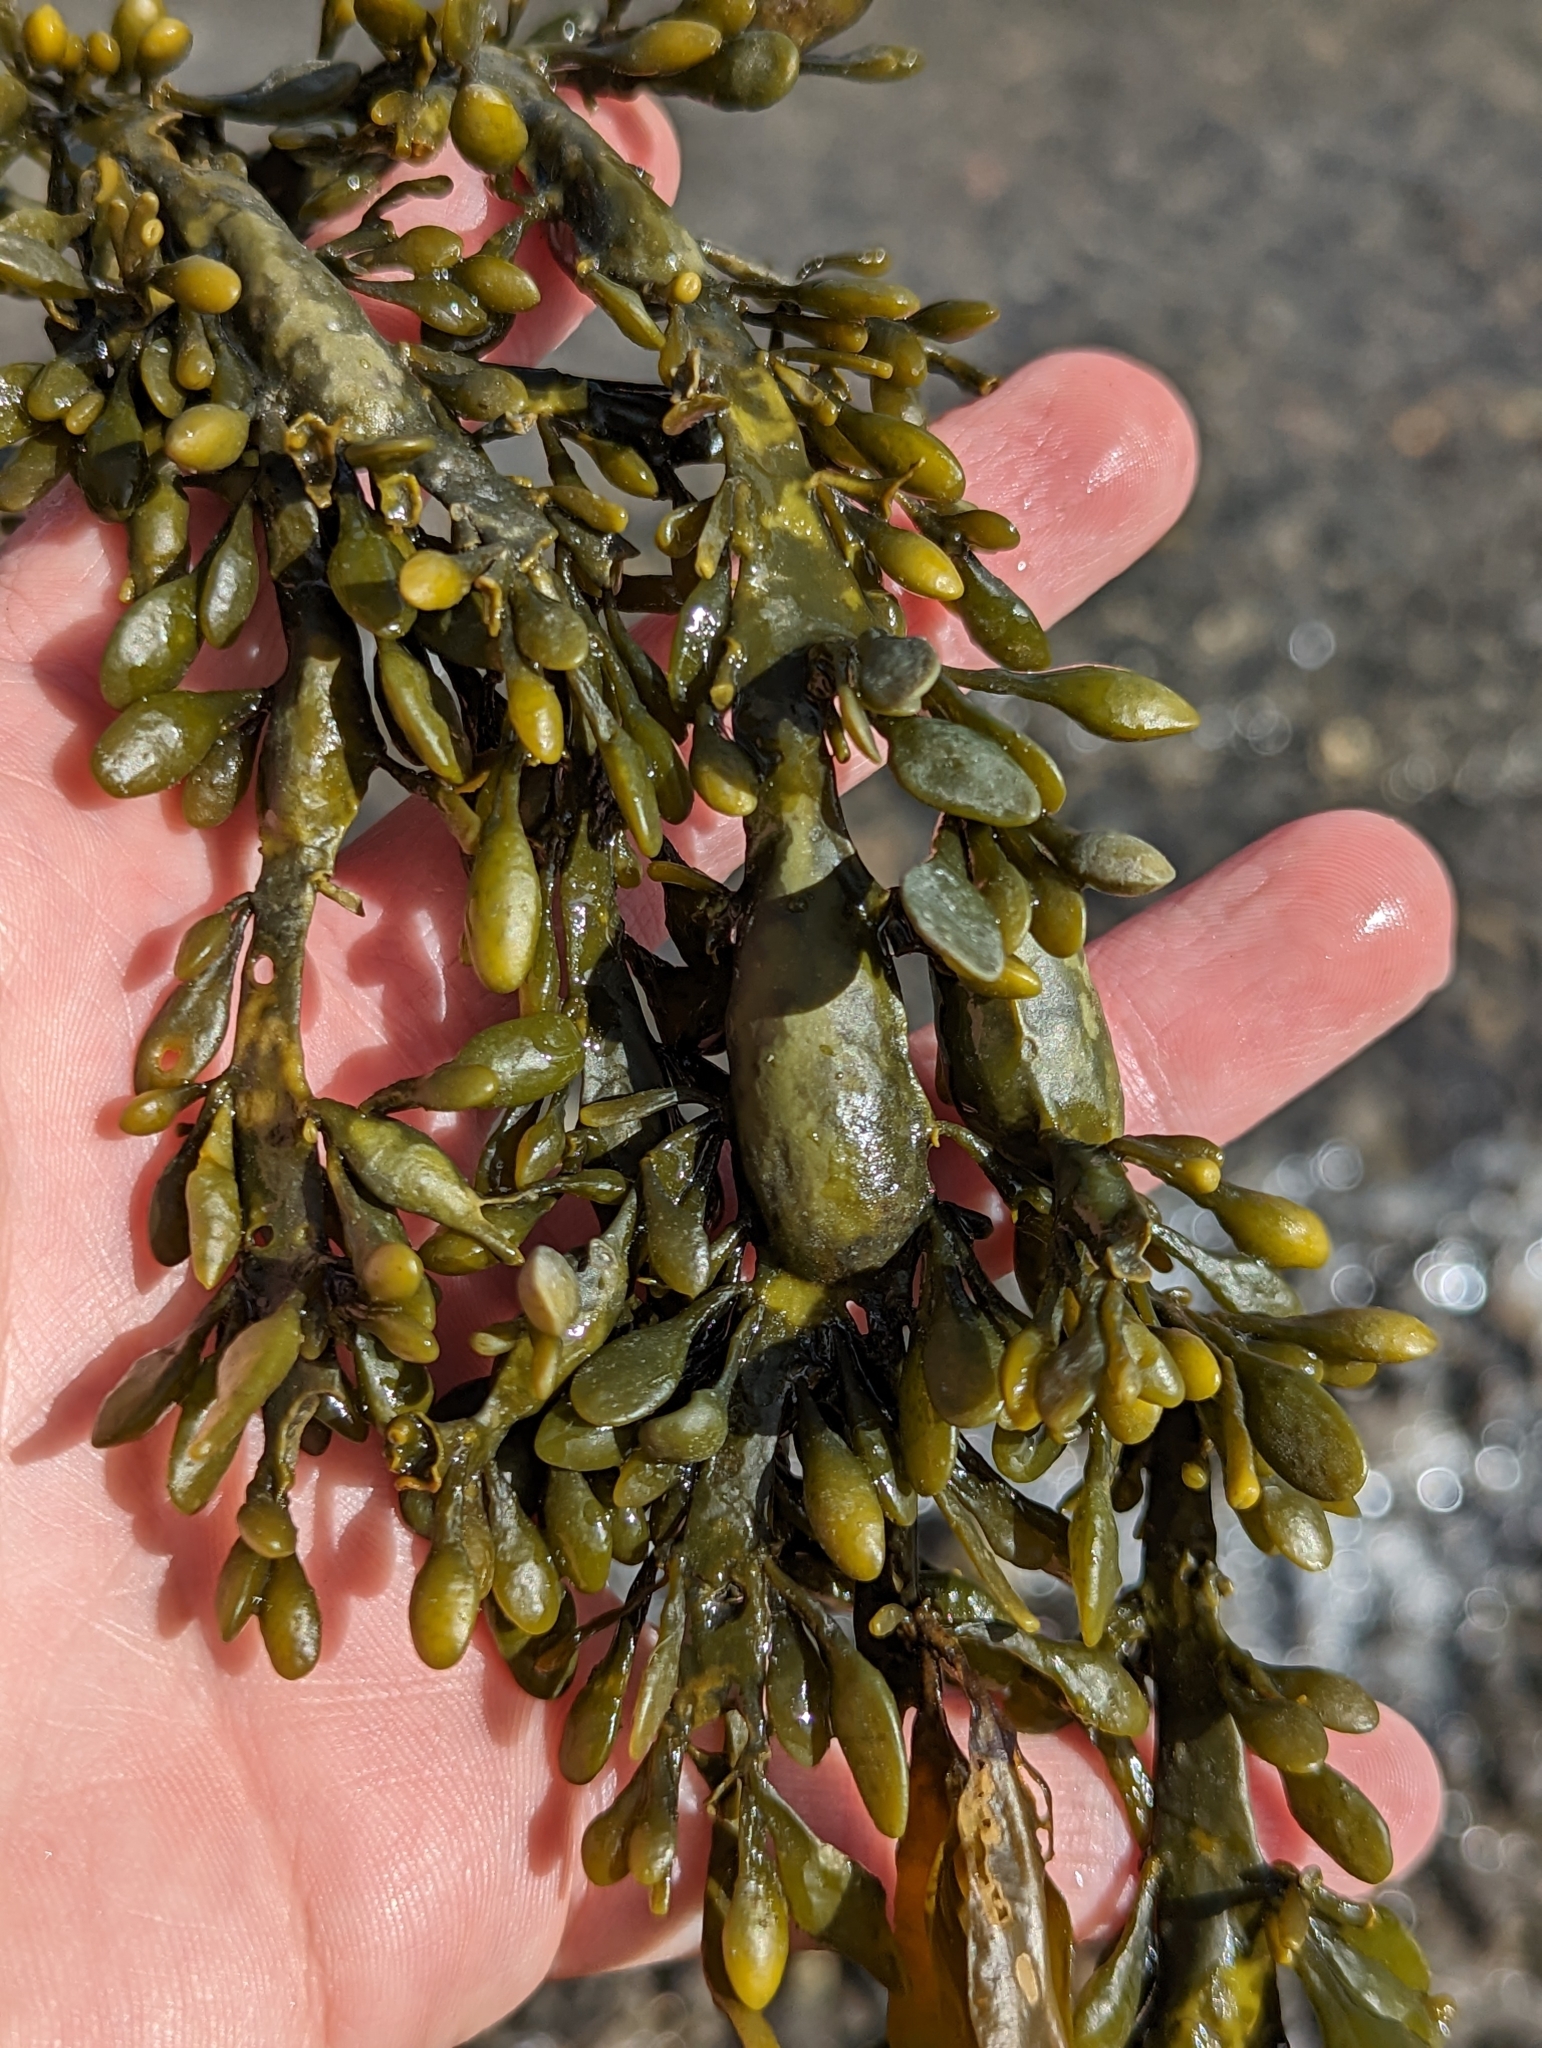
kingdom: Chromista
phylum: Ochrophyta
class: Phaeophyceae
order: Fucales
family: Fucaceae
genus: Ascophyllum
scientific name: Ascophyllum nodosum
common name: Knotted wrack
